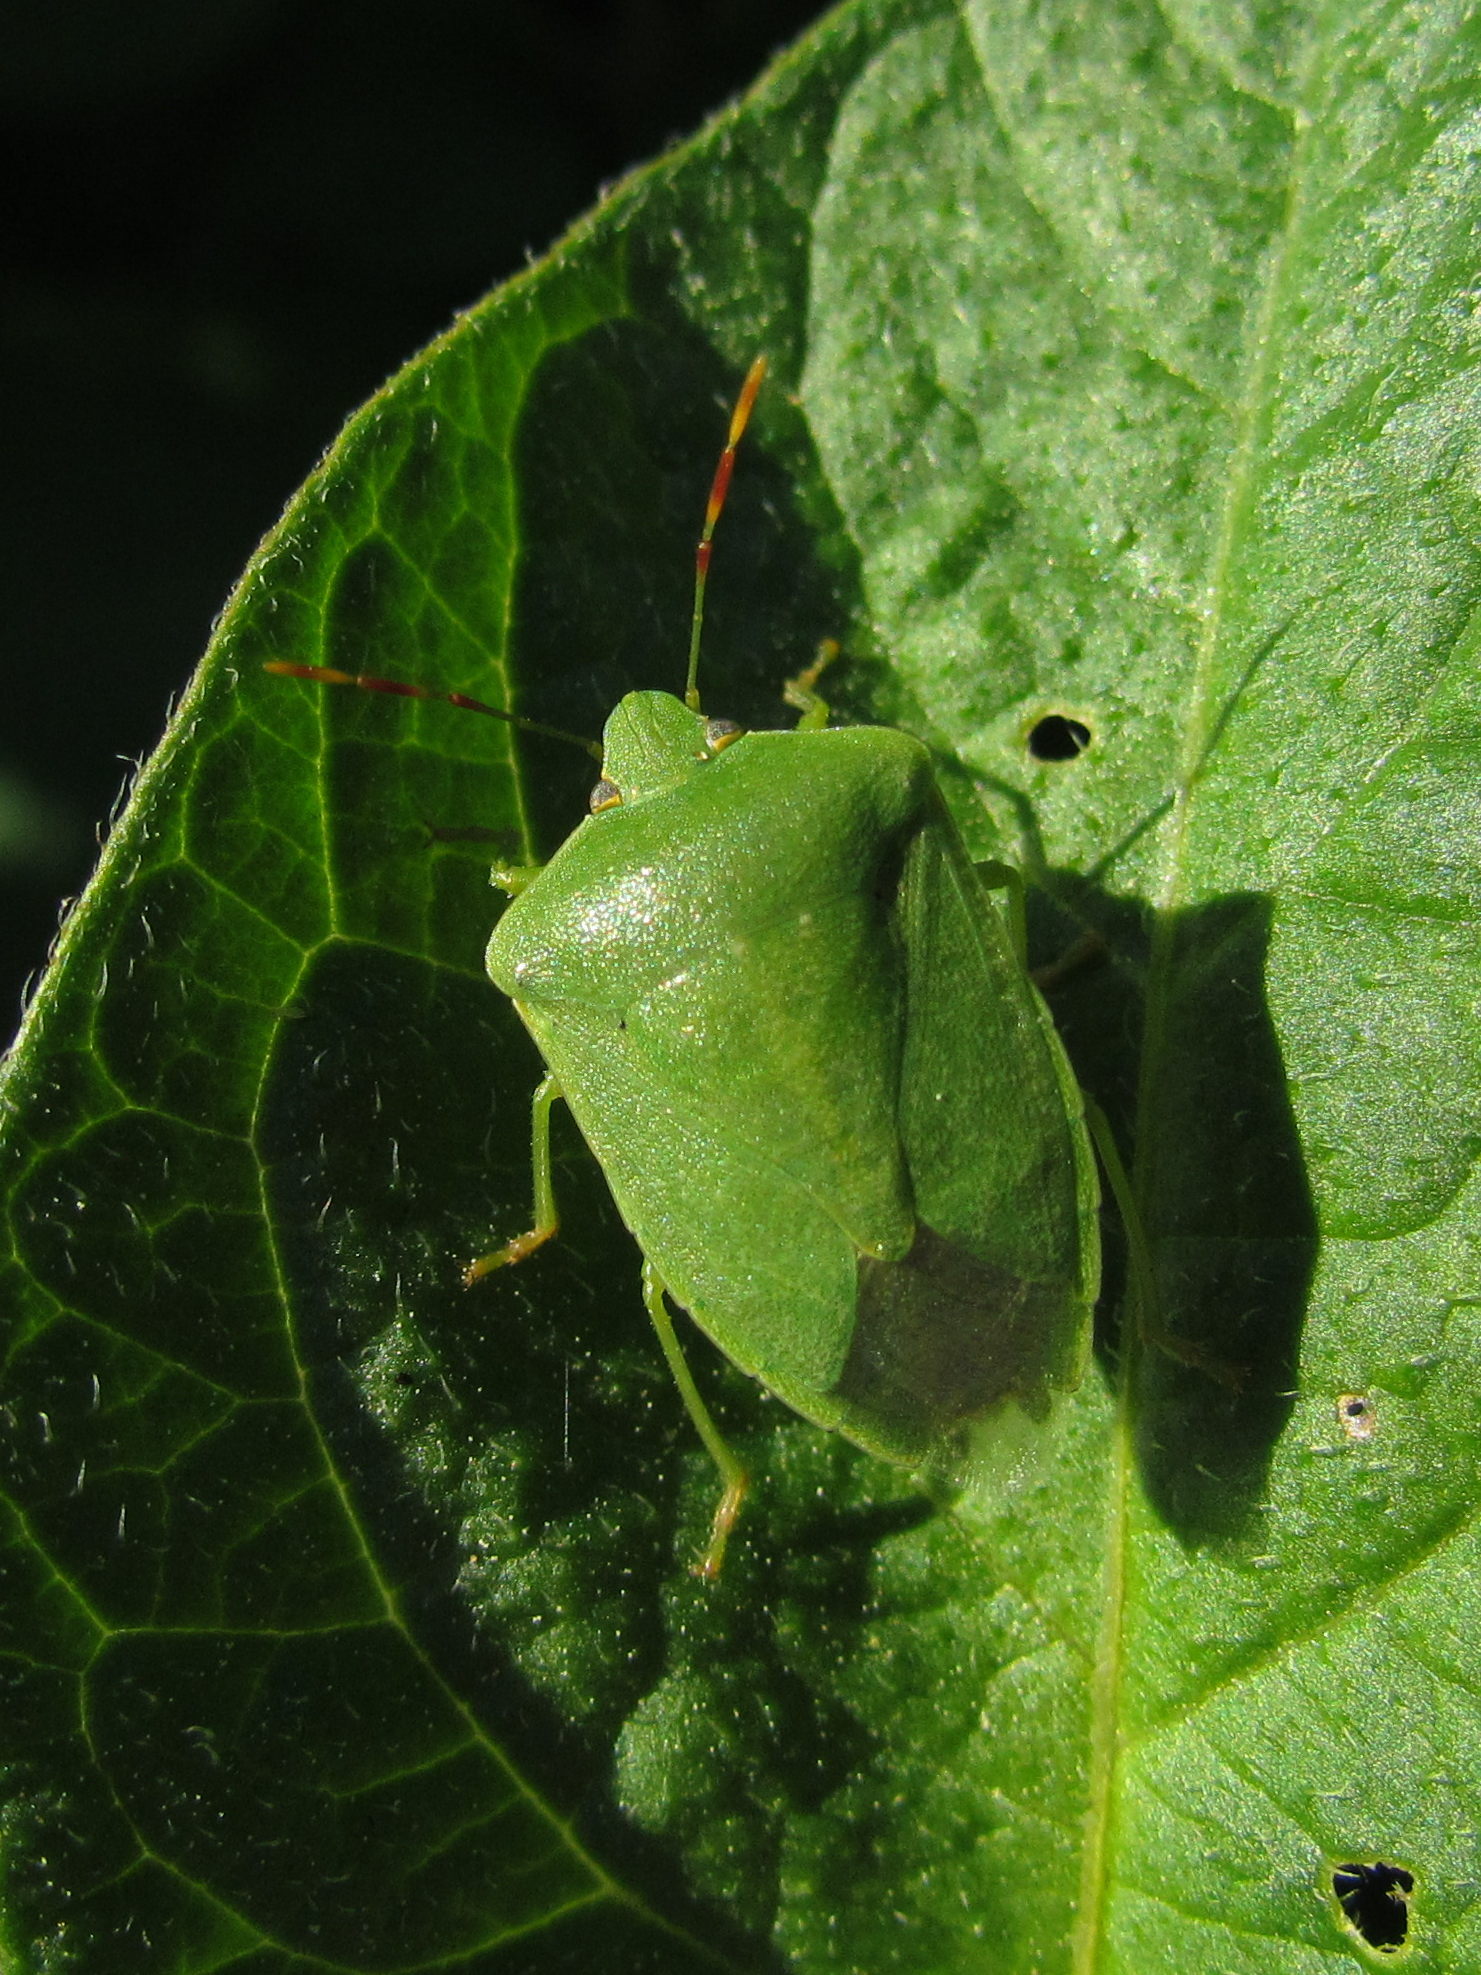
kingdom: Animalia
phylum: Arthropoda
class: Insecta
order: Hemiptera
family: Pentatomidae
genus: Nezara
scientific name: Nezara viridula
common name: Southern green stink bug
